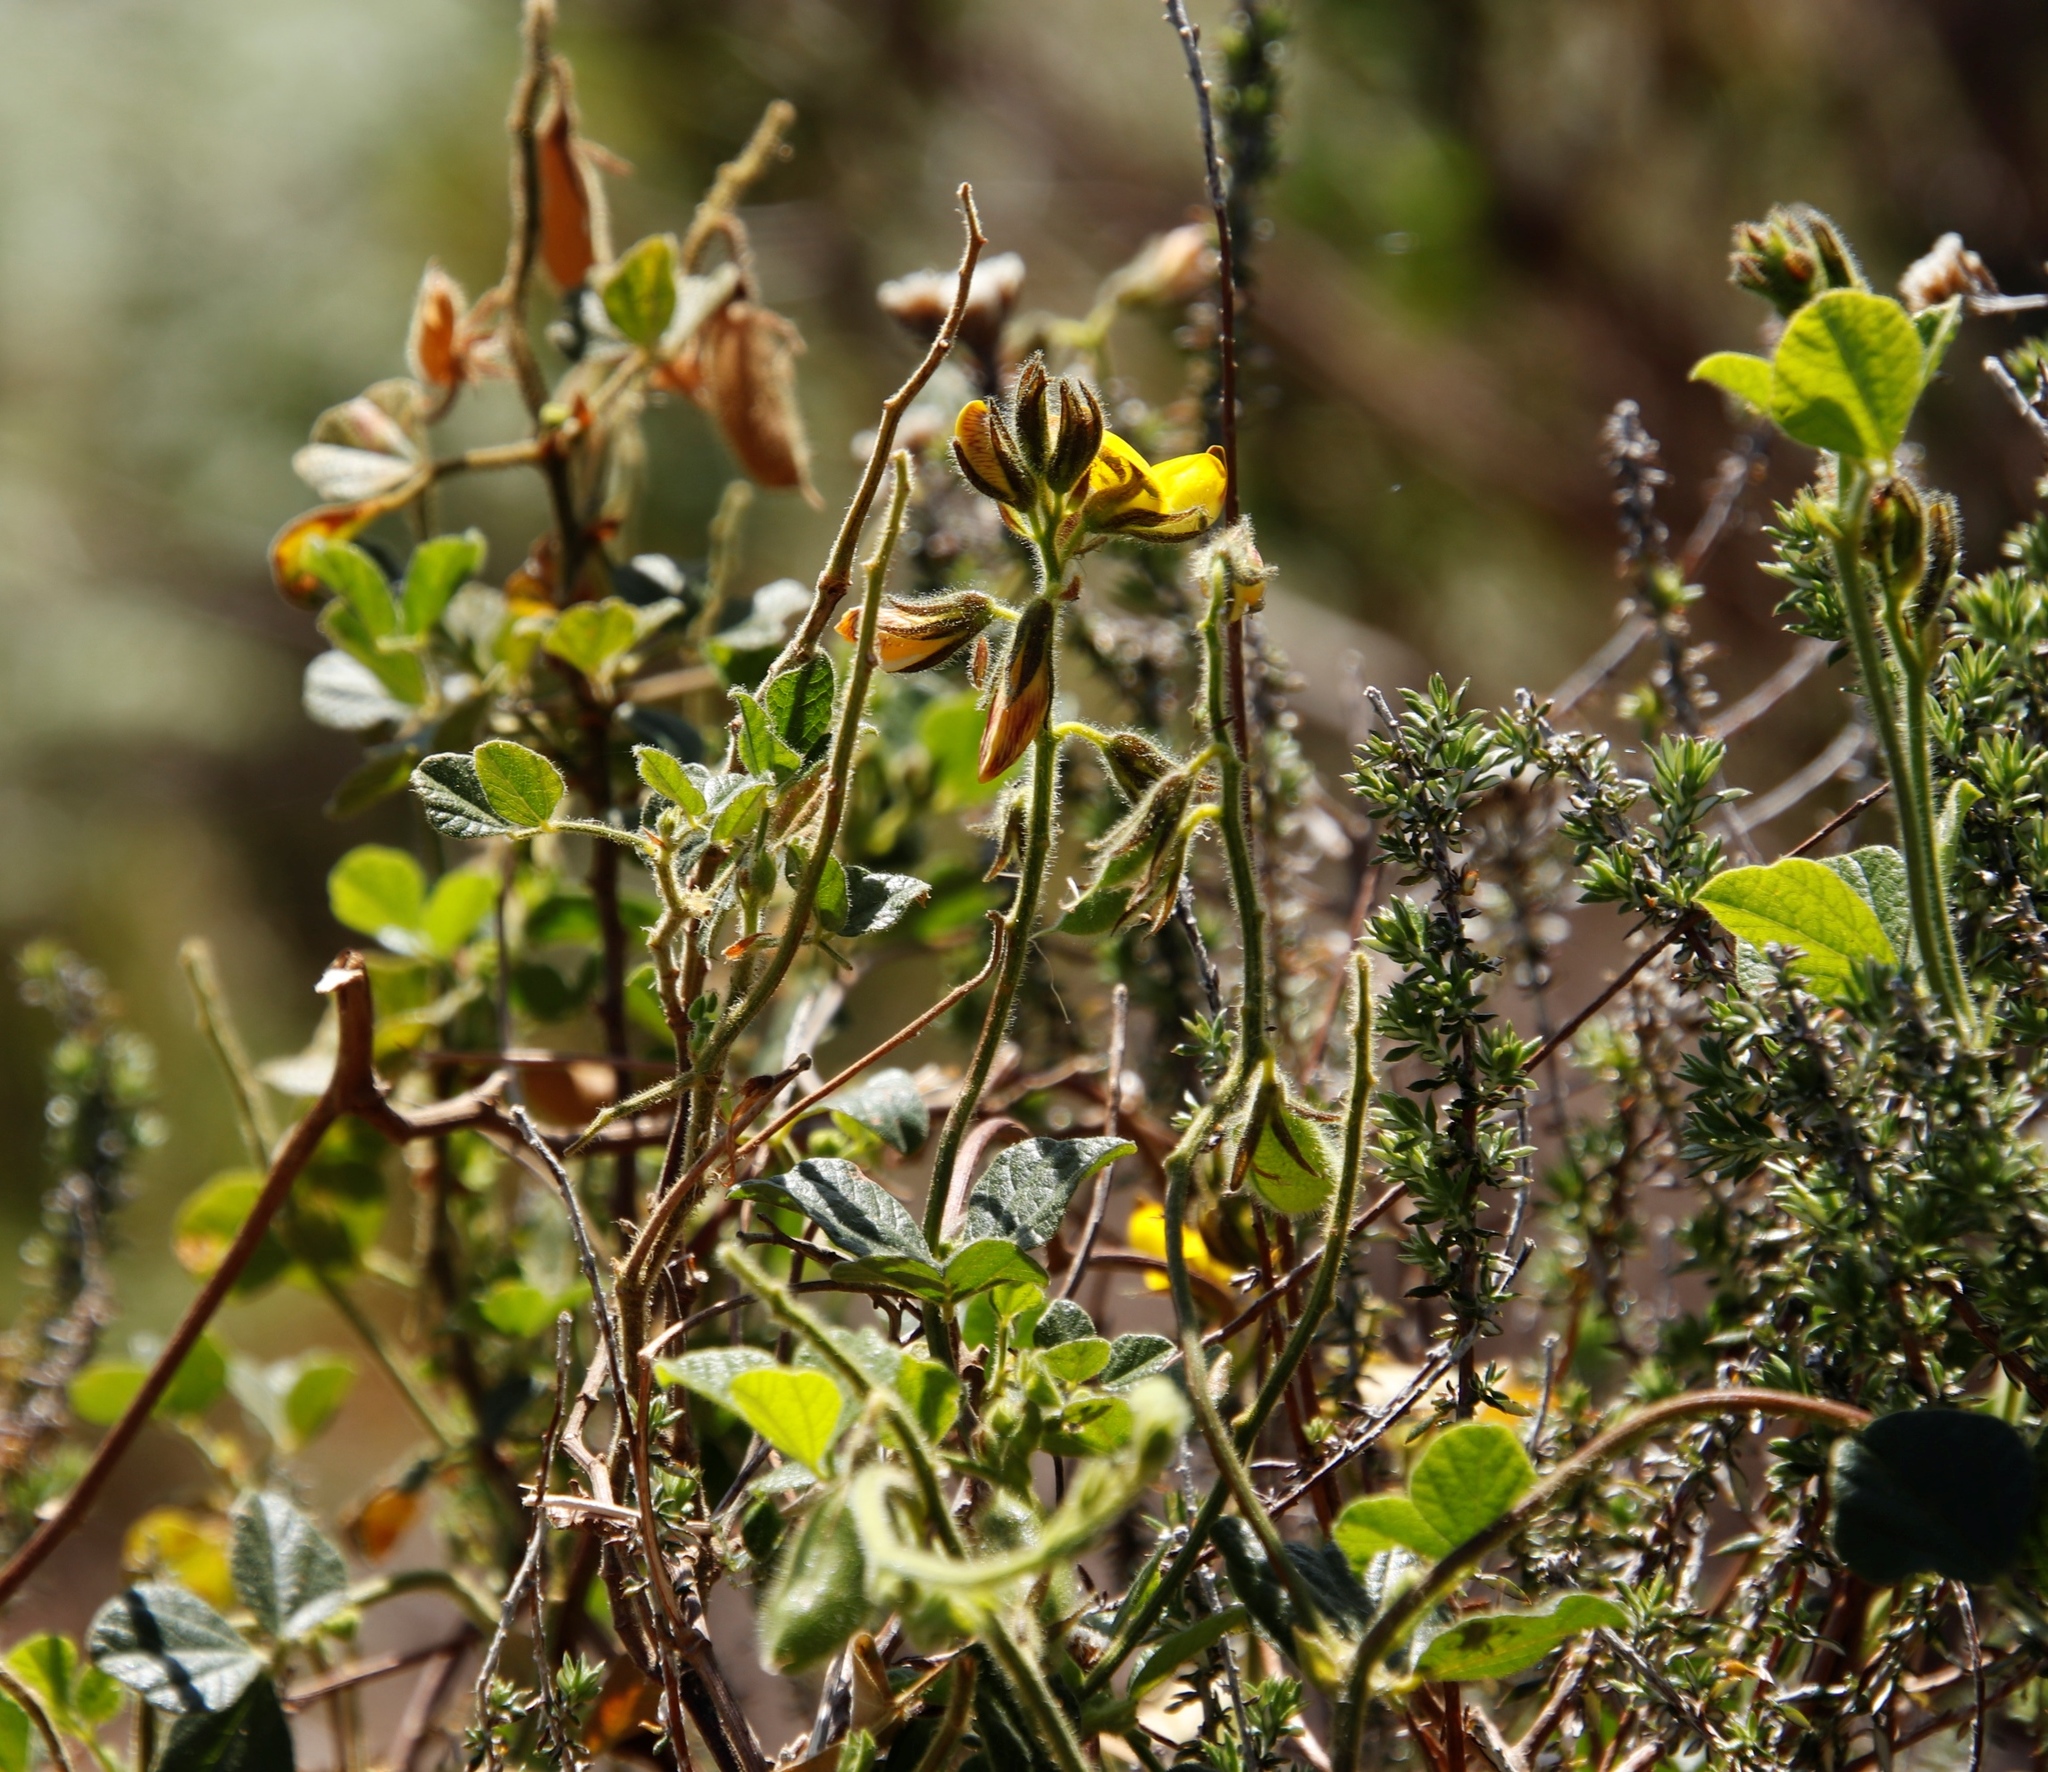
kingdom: Plantae
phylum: Tracheophyta
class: Magnoliopsida
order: Fabales
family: Fabaceae
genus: Bolusafra
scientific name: Bolusafra bituminosa
